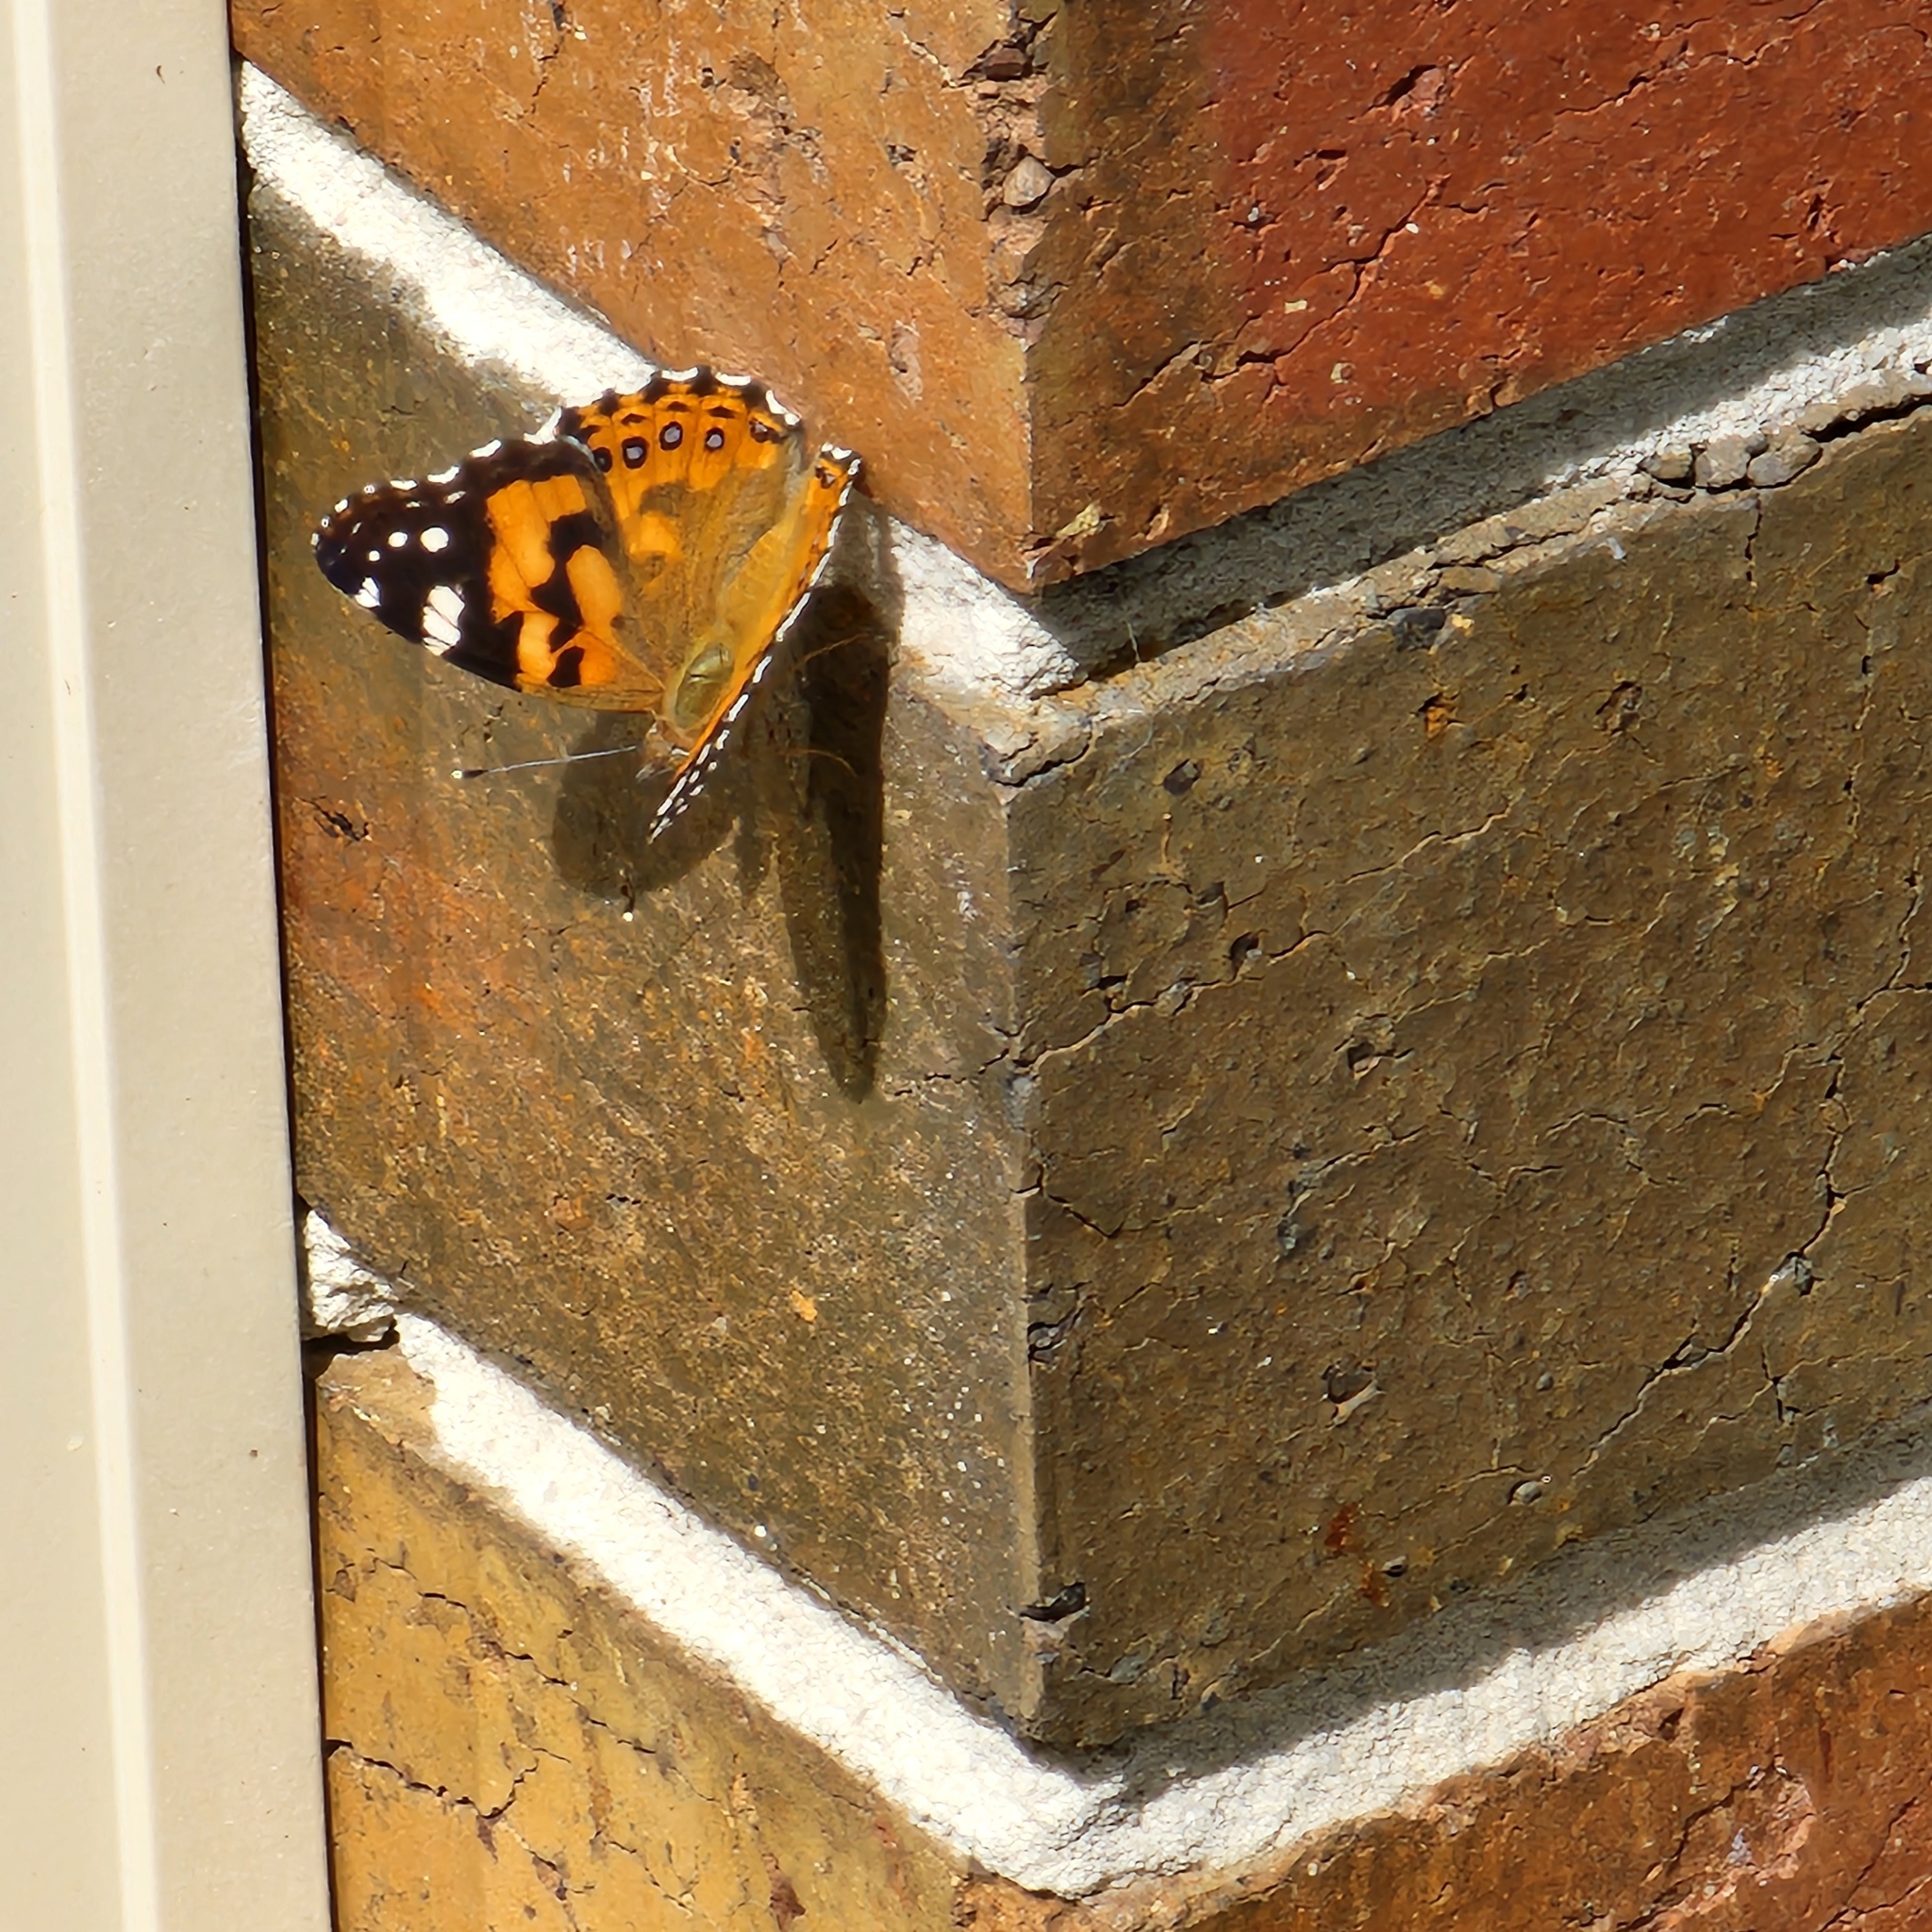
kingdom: Animalia
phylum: Arthropoda
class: Insecta
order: Lepidoptera
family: Nymphalidae
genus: Vanessa
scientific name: Vanessa kershawi
